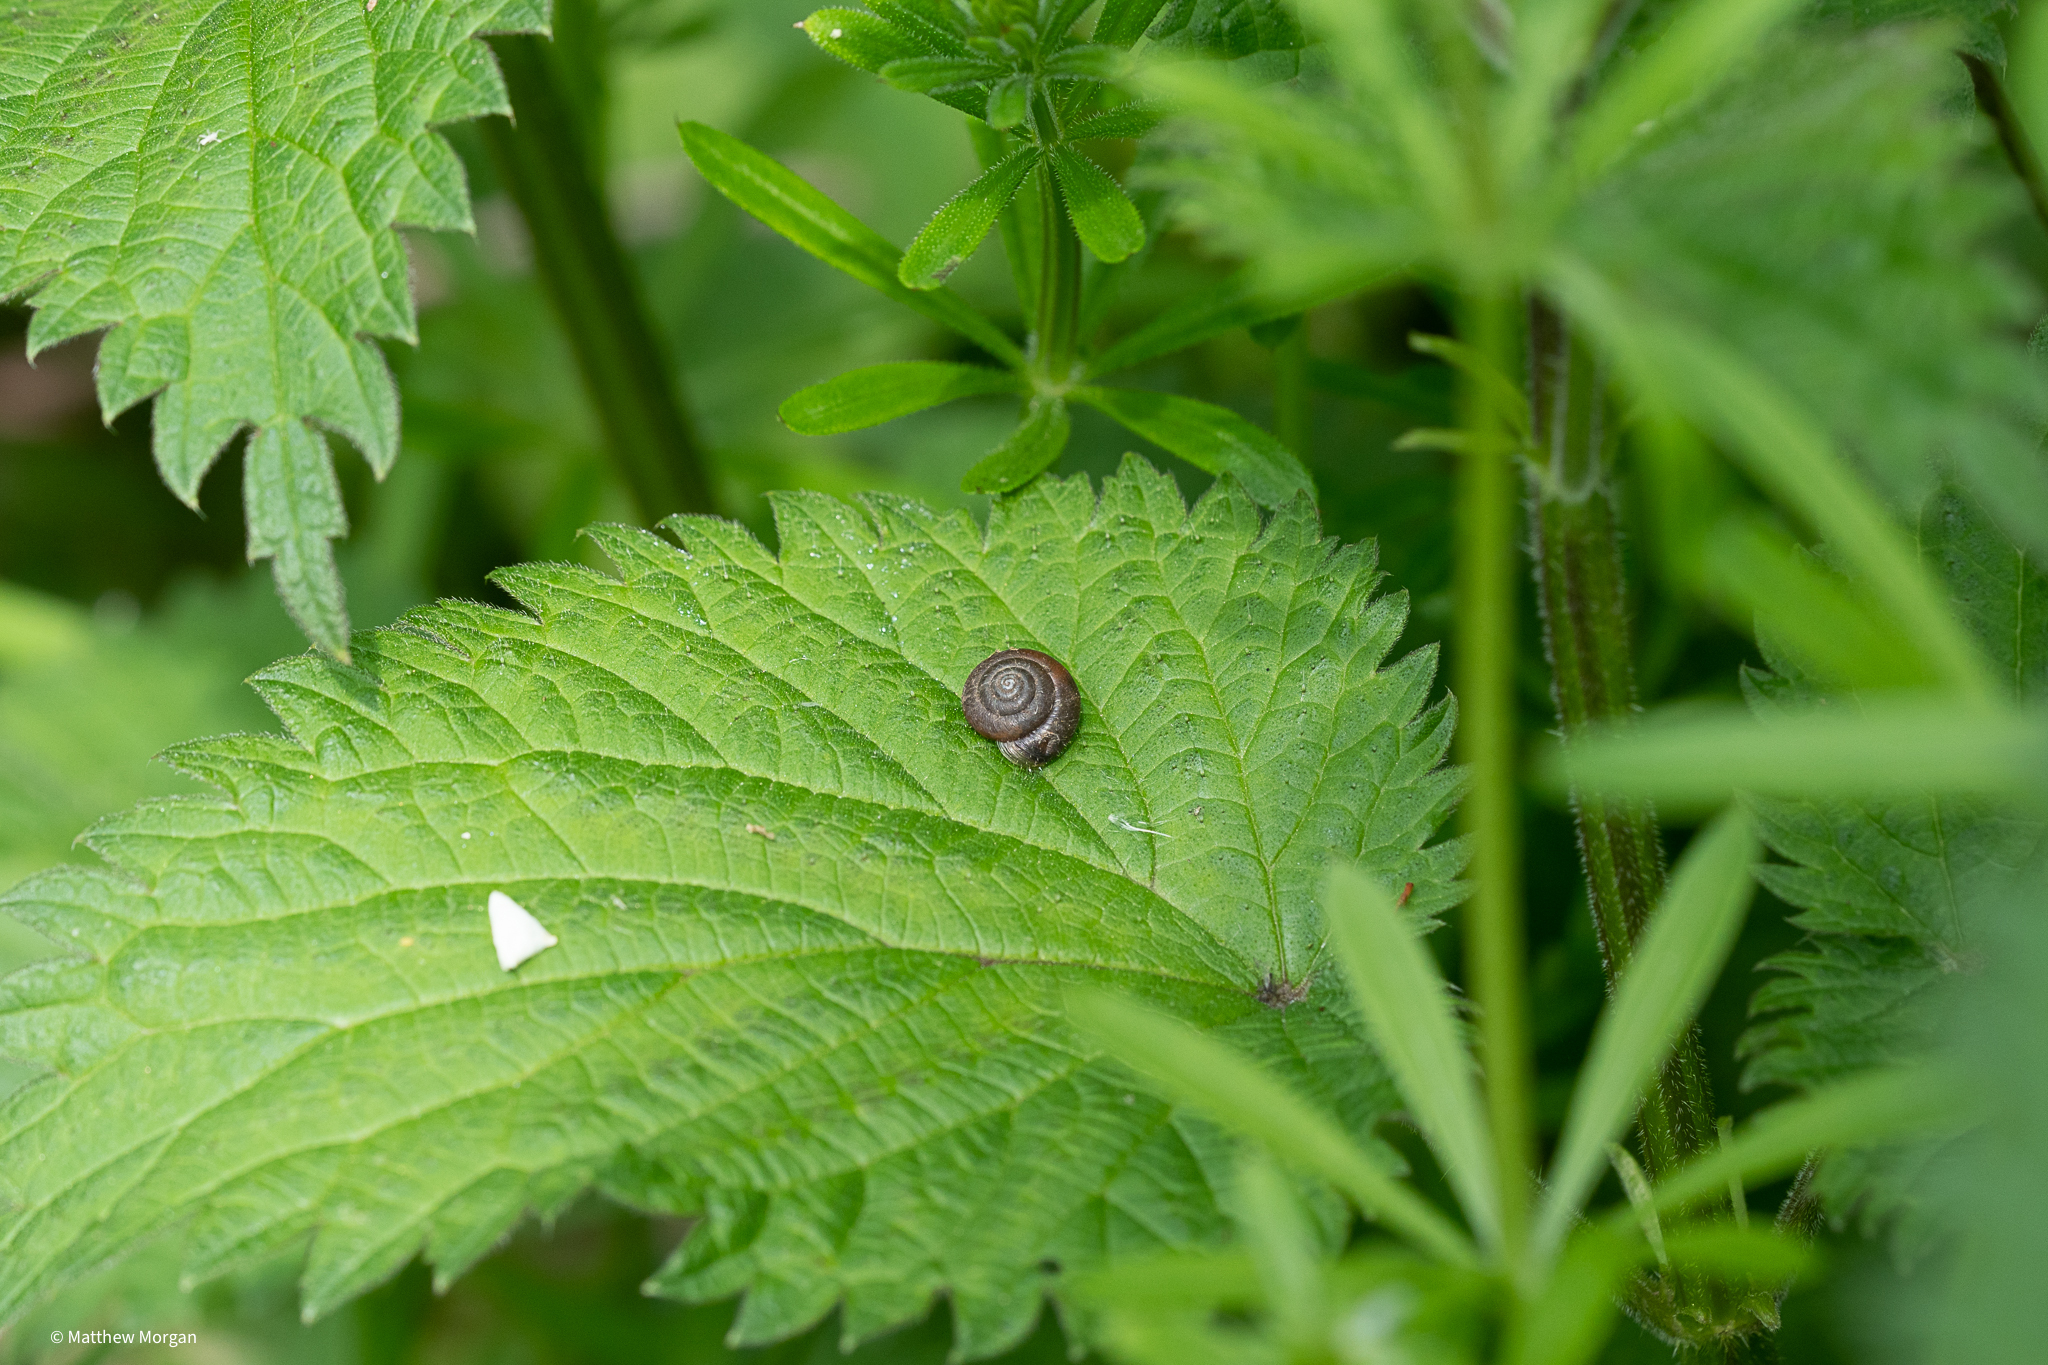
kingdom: Animalia
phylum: Mollusca
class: Gastropoda
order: Stylommatophora
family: Hygromiidae
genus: Trochulus
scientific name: Trochulus striolatus
